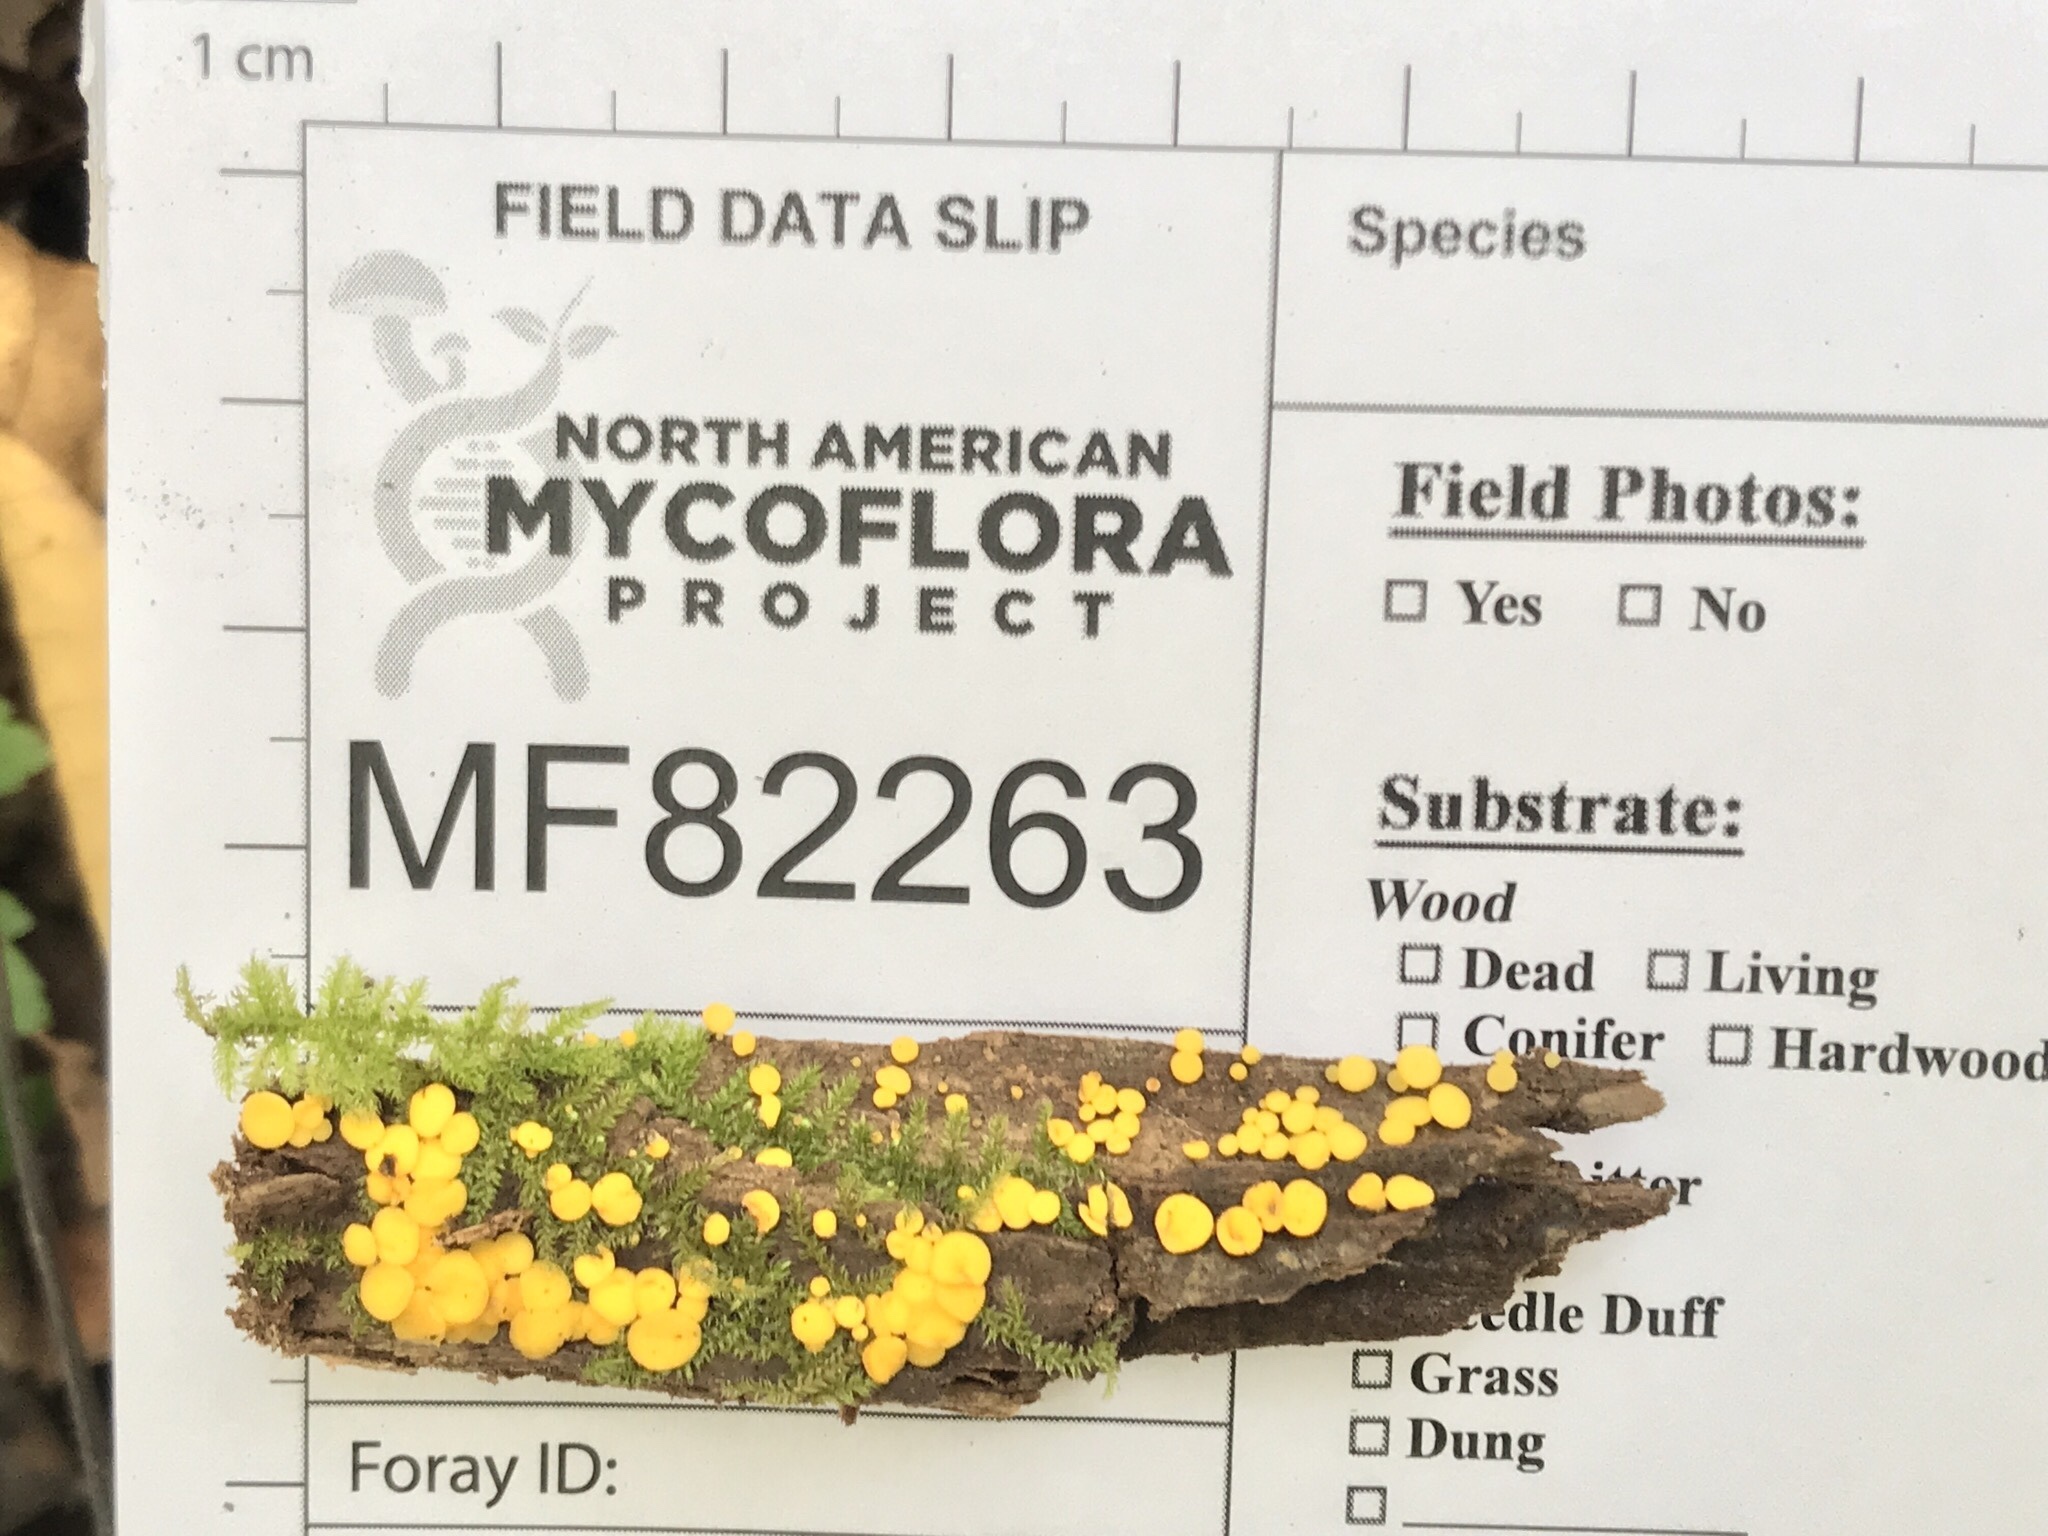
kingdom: Fungi
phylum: Ascomycota
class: Leotiomycetes
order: Helotiales
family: Pezizellaceae
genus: Calycina
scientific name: Calycina citrina
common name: Yellow fairy cups
